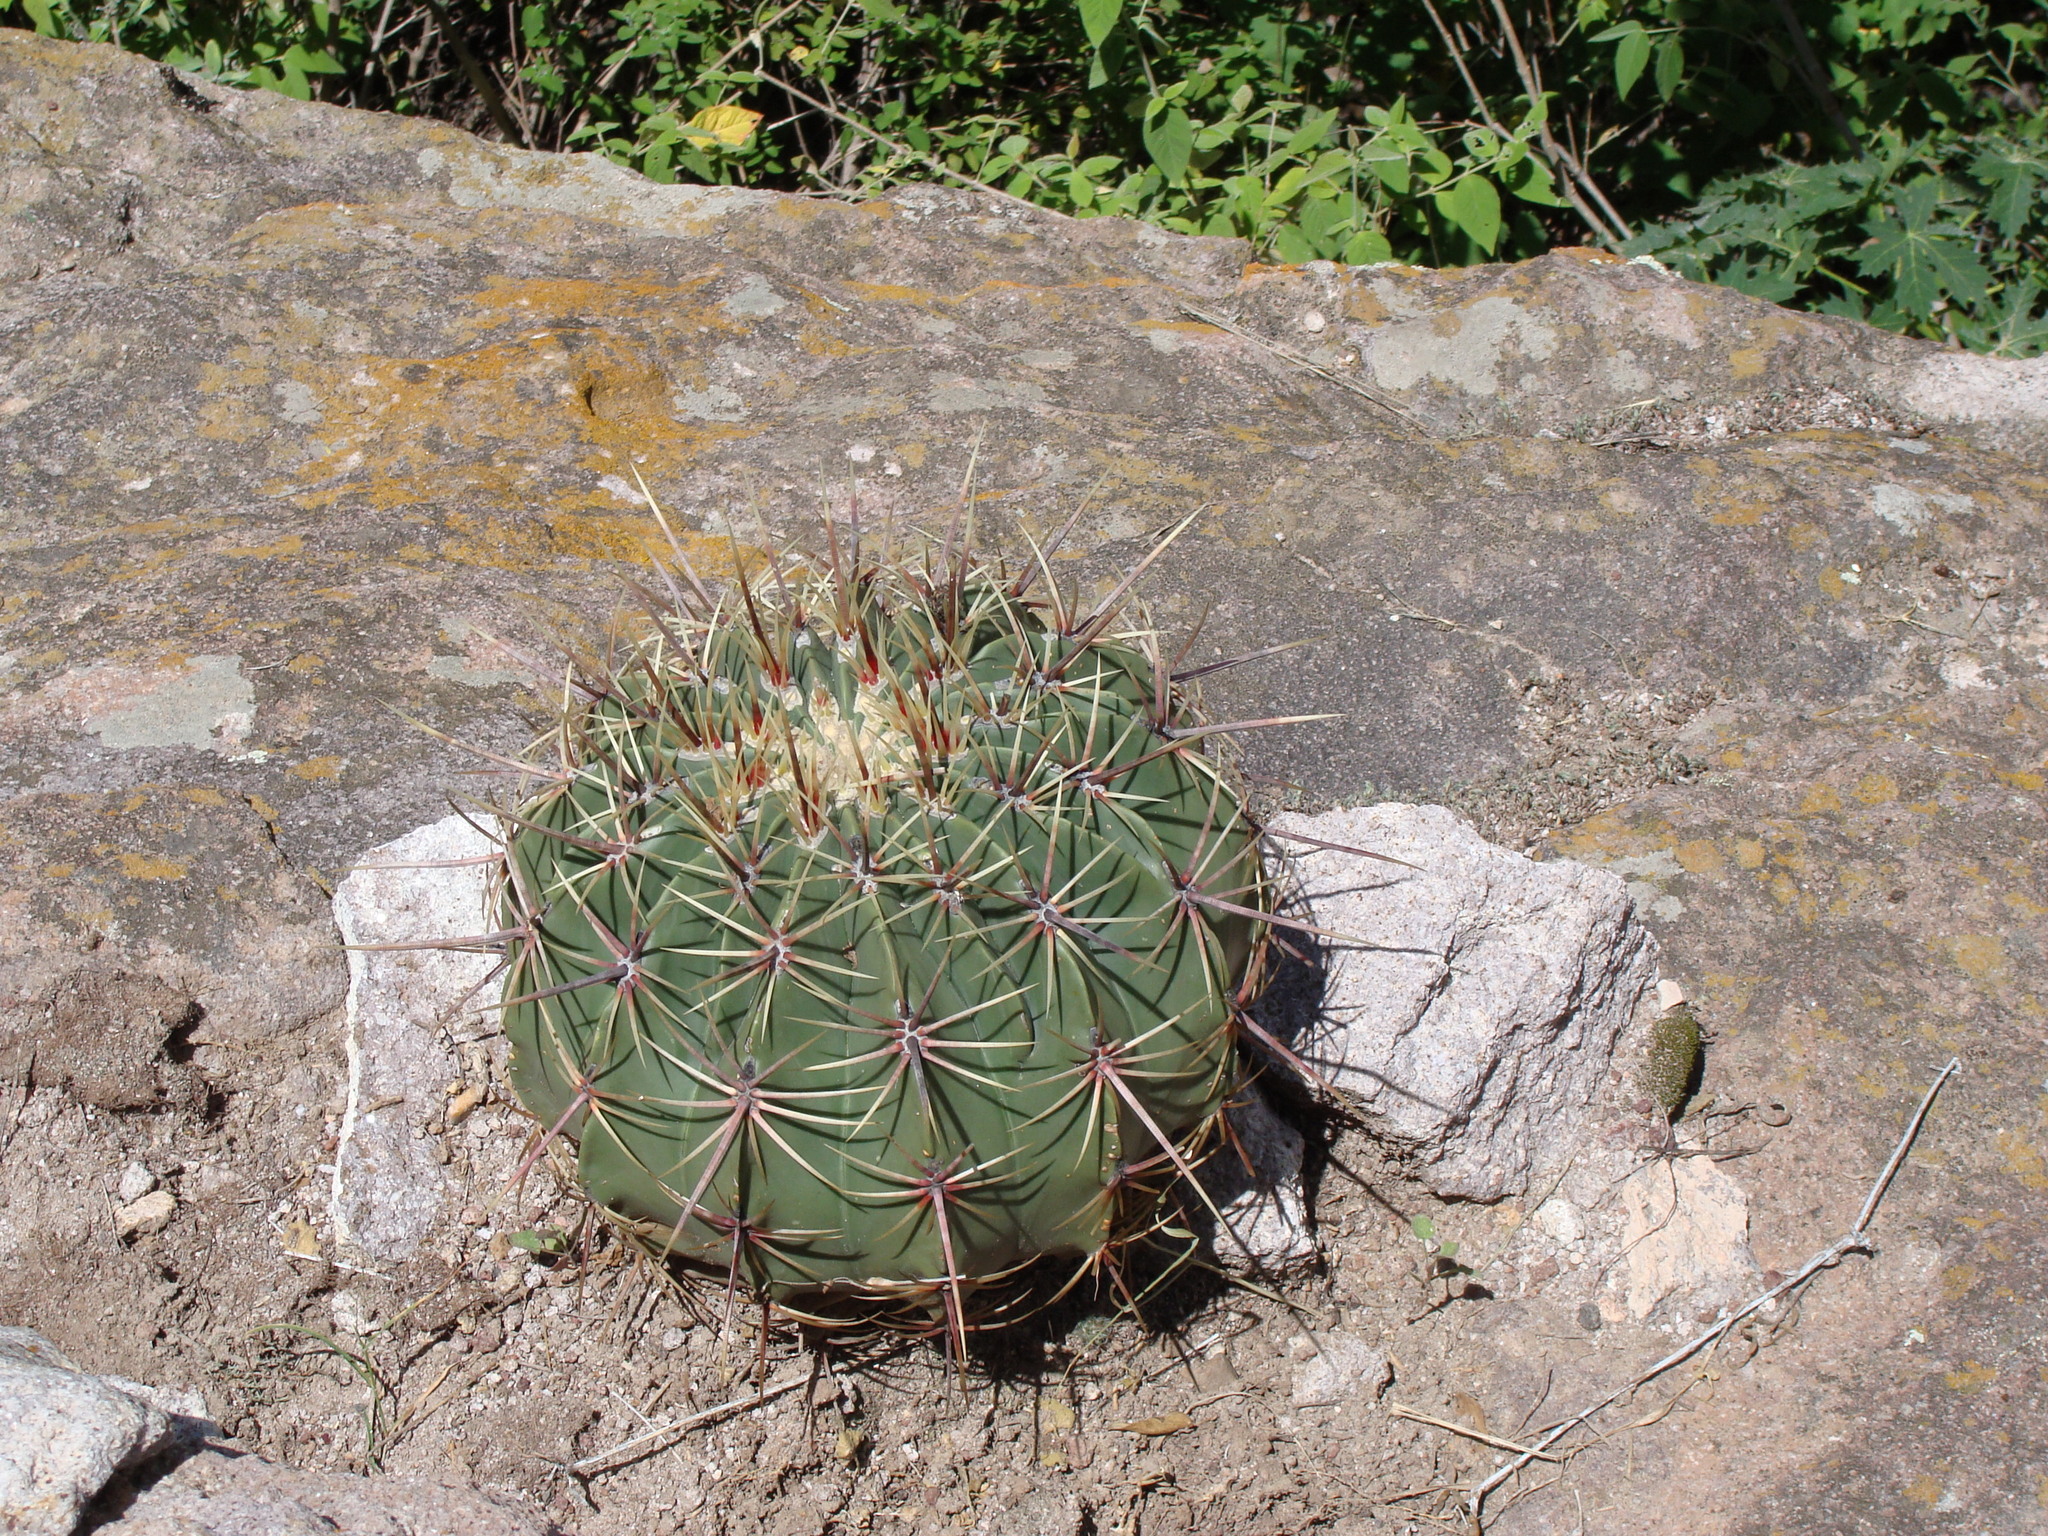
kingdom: Plantae
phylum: Tracheophyta
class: Magnoliopsida
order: Caryophyllales
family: Cactaceae
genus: Bisnaga
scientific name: Bisnaga histrix
